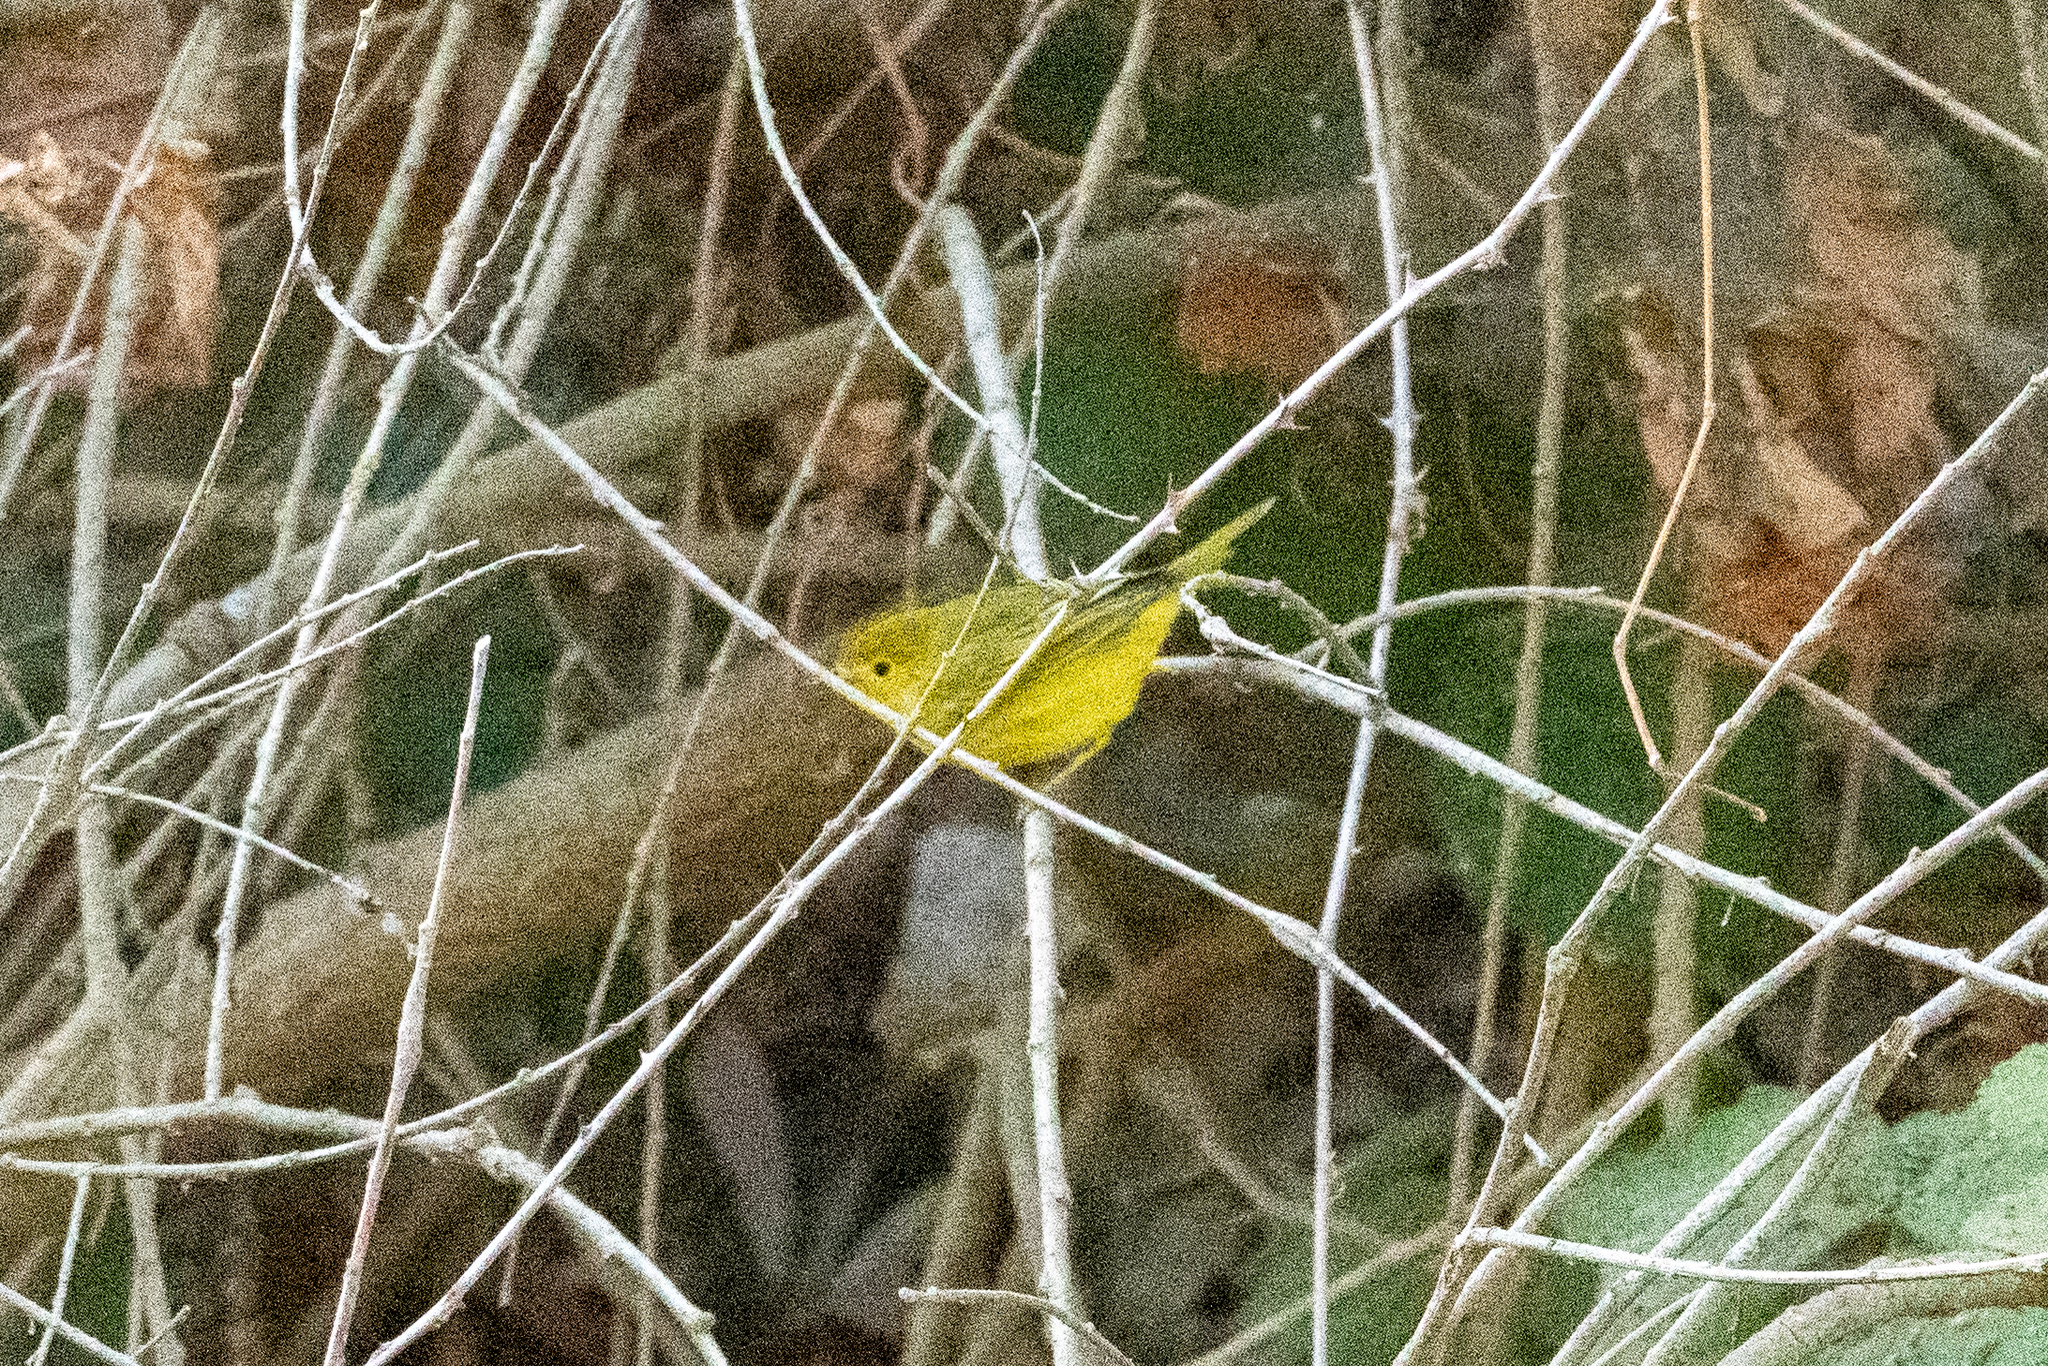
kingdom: Animalia
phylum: Chordata
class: Aves
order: Passeriformes
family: Parulidae
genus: Setophaga
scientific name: Setophaga petechia
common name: Yellow warbler
